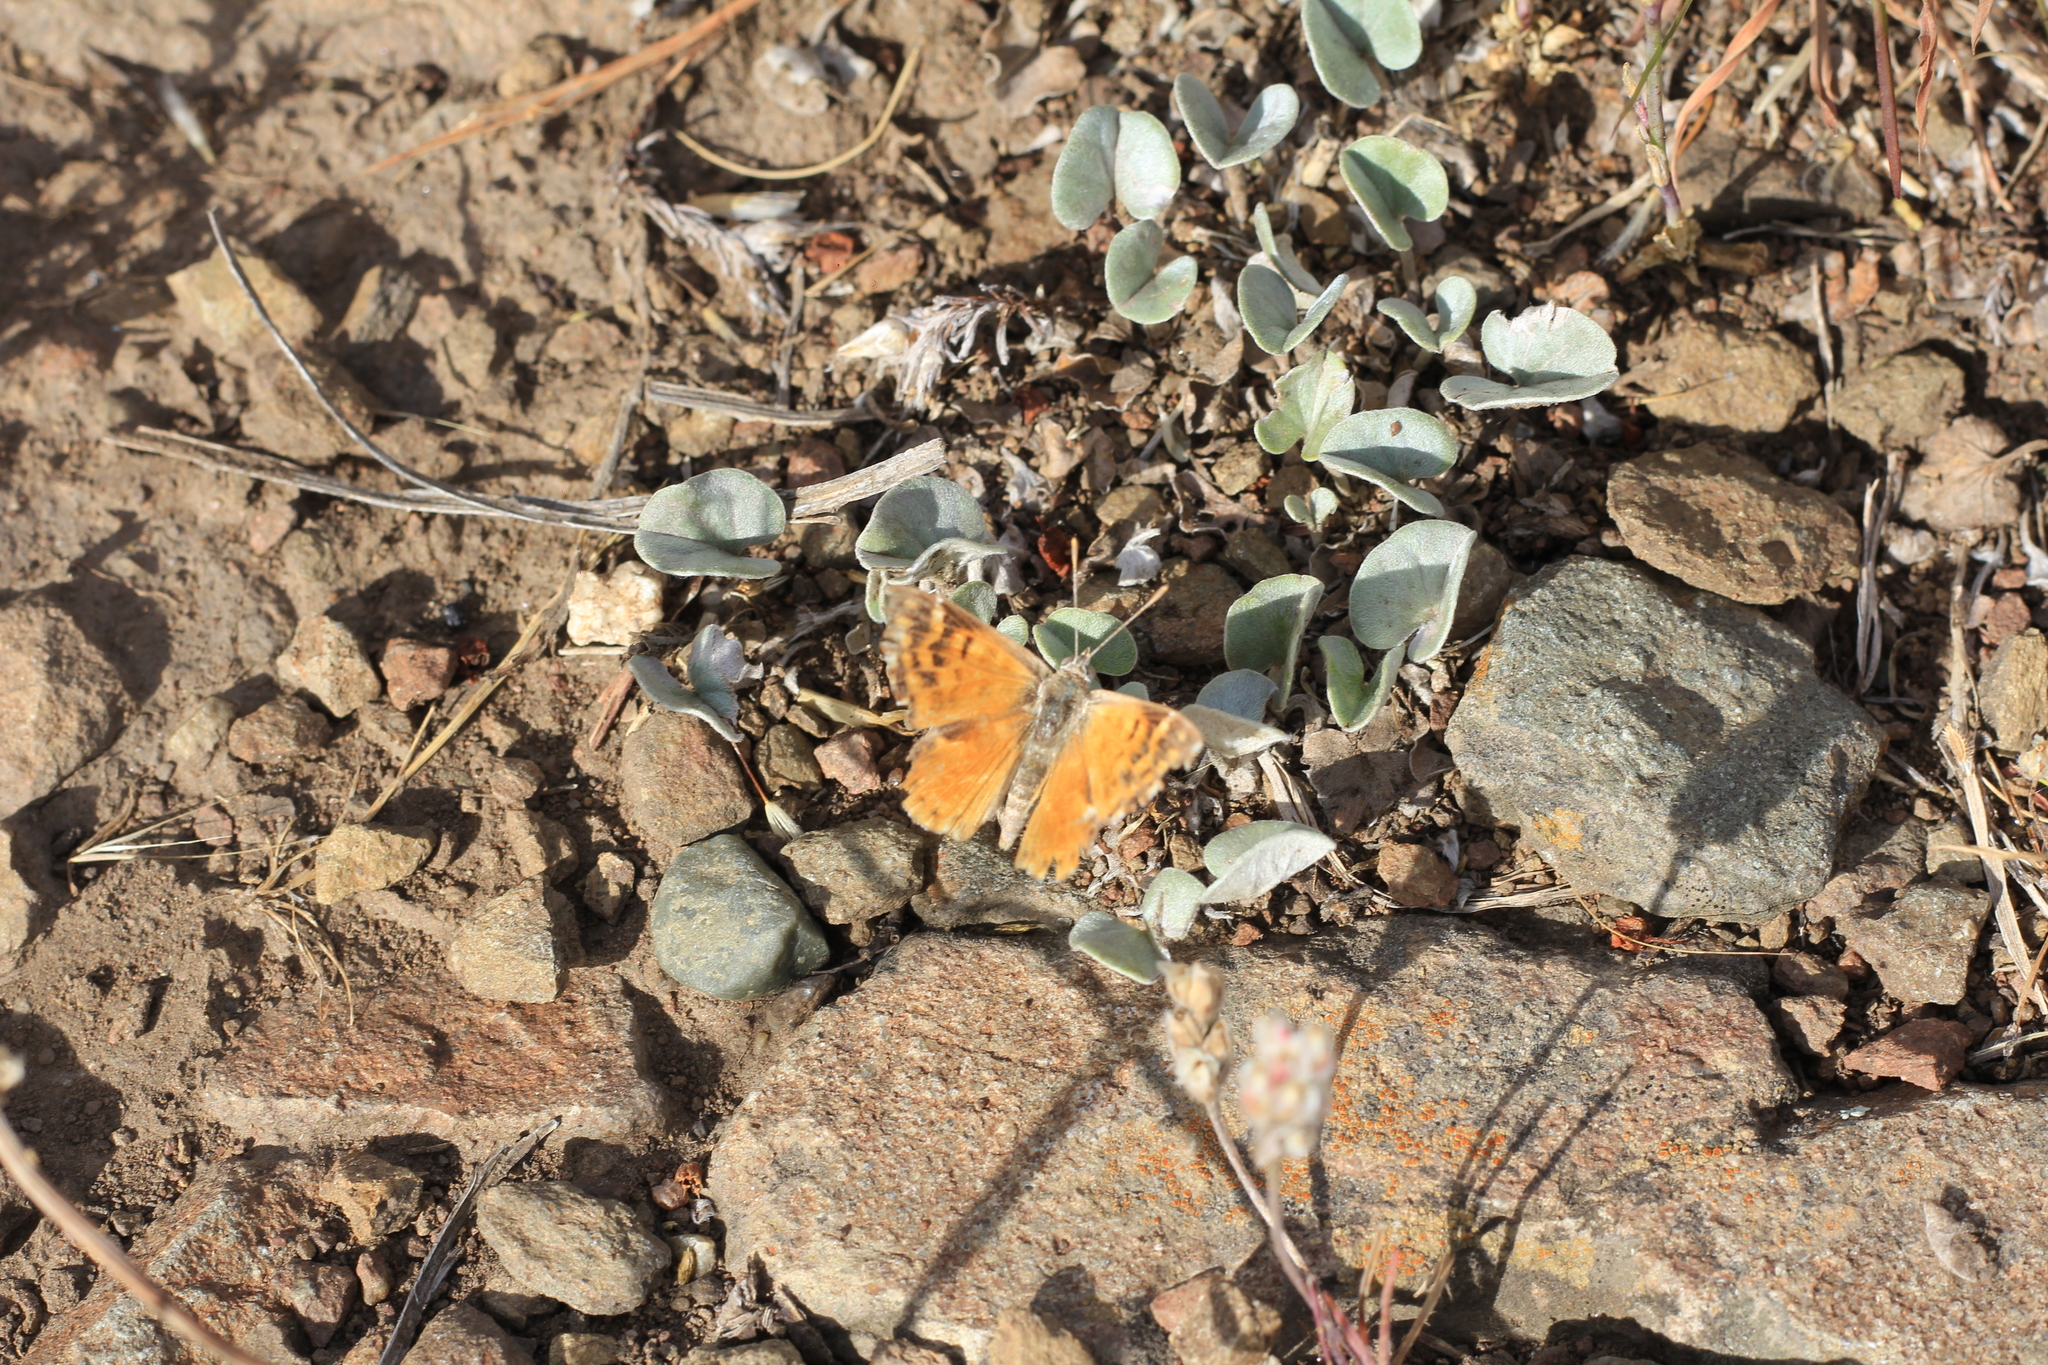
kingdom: Animalia
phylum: Arthropoda
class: Insecta
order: Lepidoptera
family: Lycaenidae
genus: Aricoris
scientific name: Aricoris chilensis
